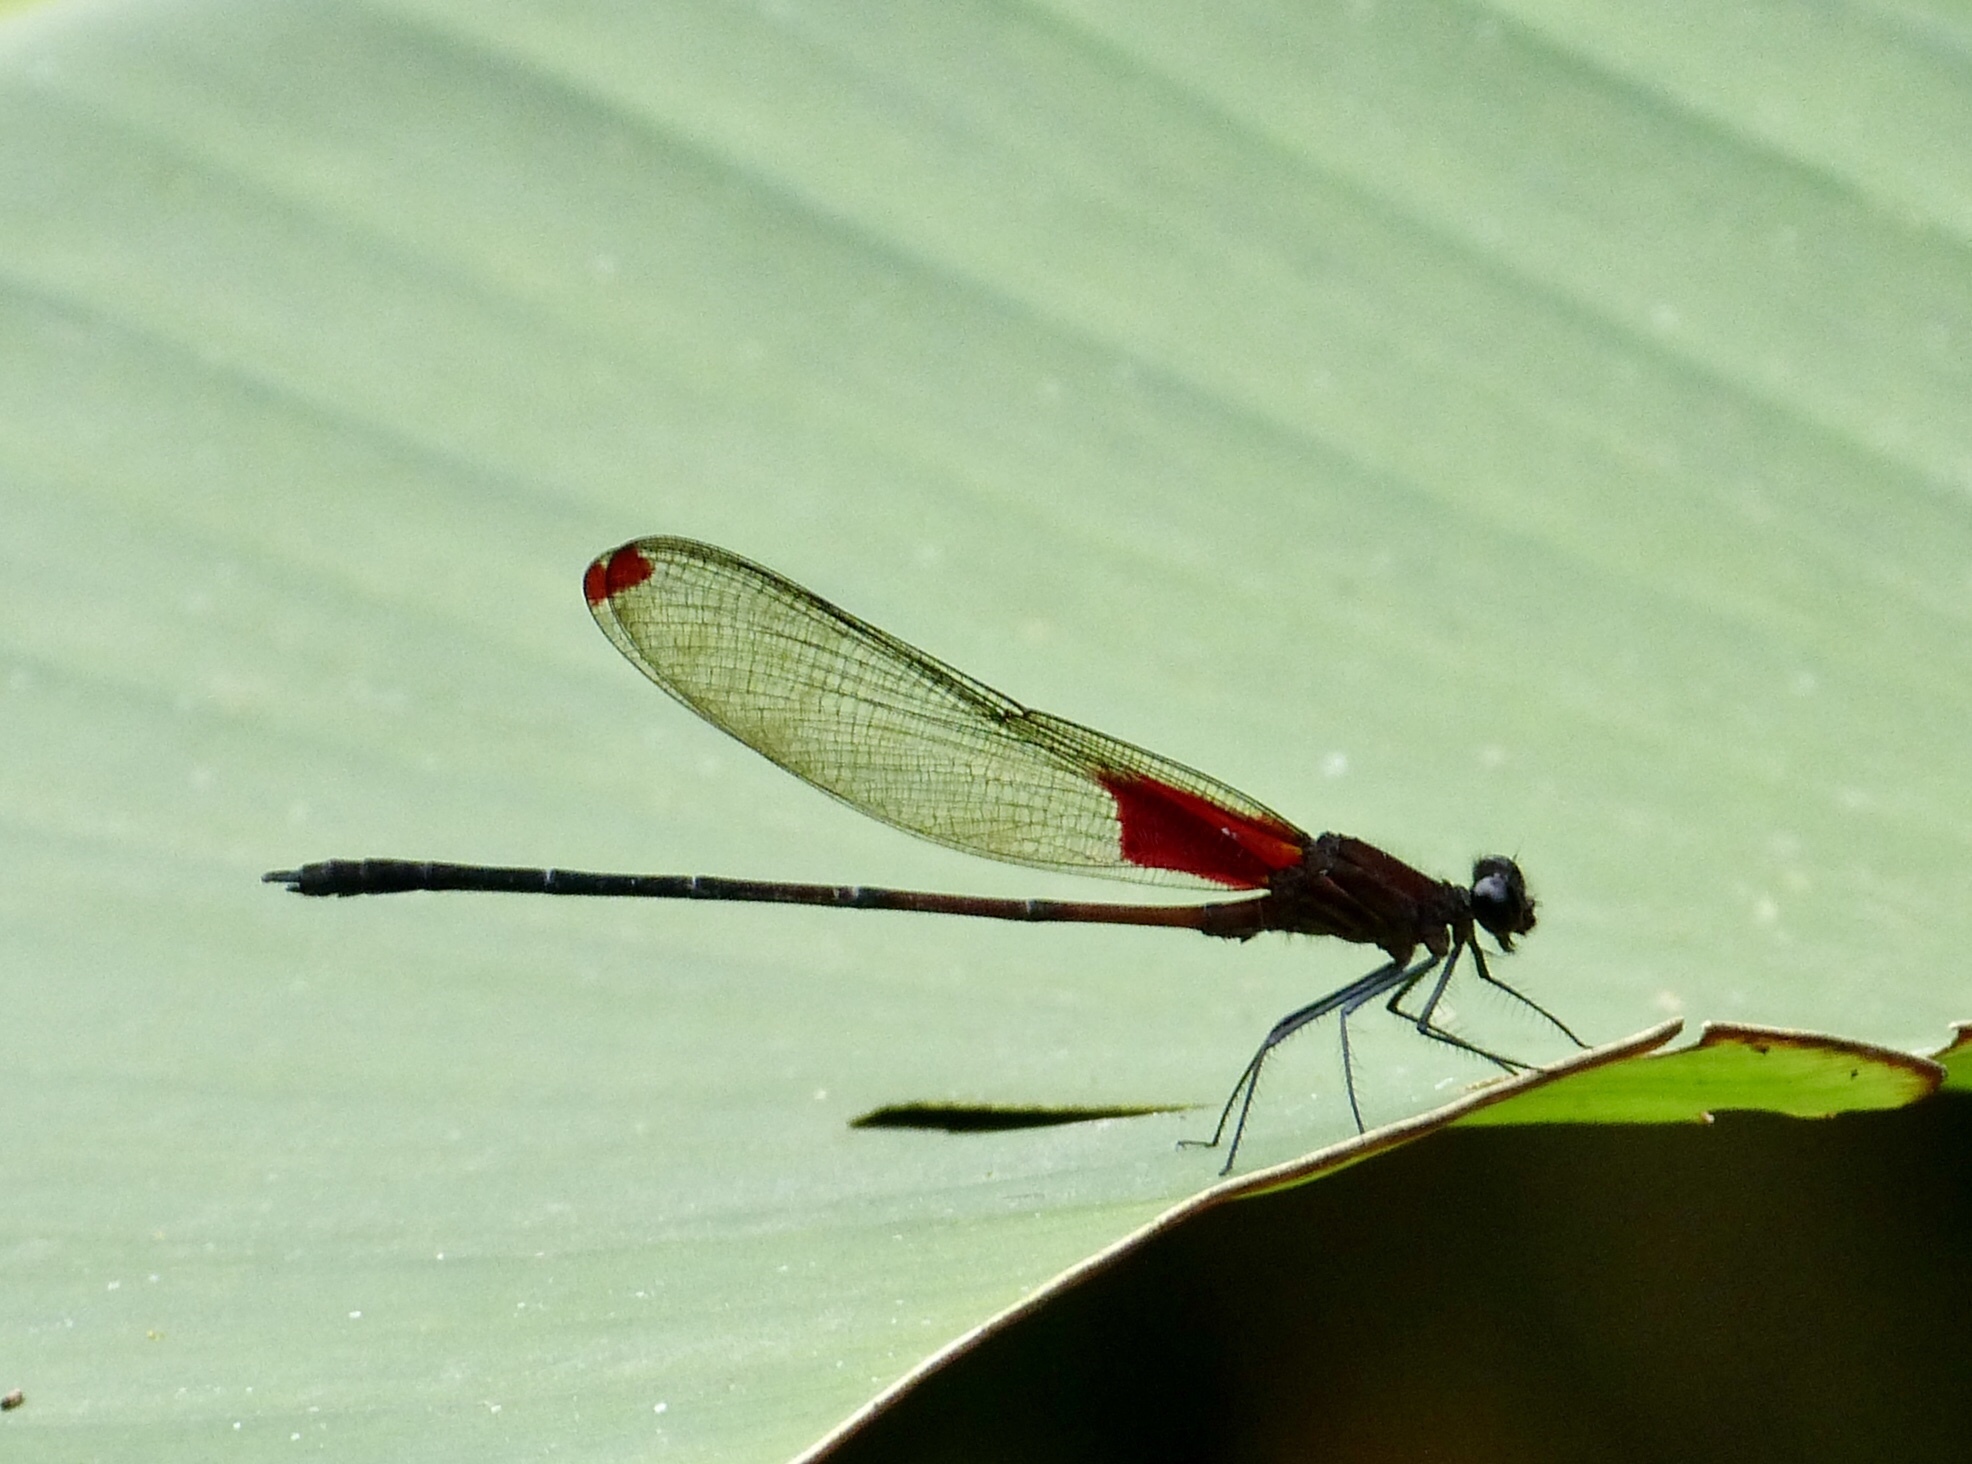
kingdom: Animalia
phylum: Arthropoda
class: Insecta
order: Odonata
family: Calopterygidae
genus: Hetaerina
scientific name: Hetaerina occisa
